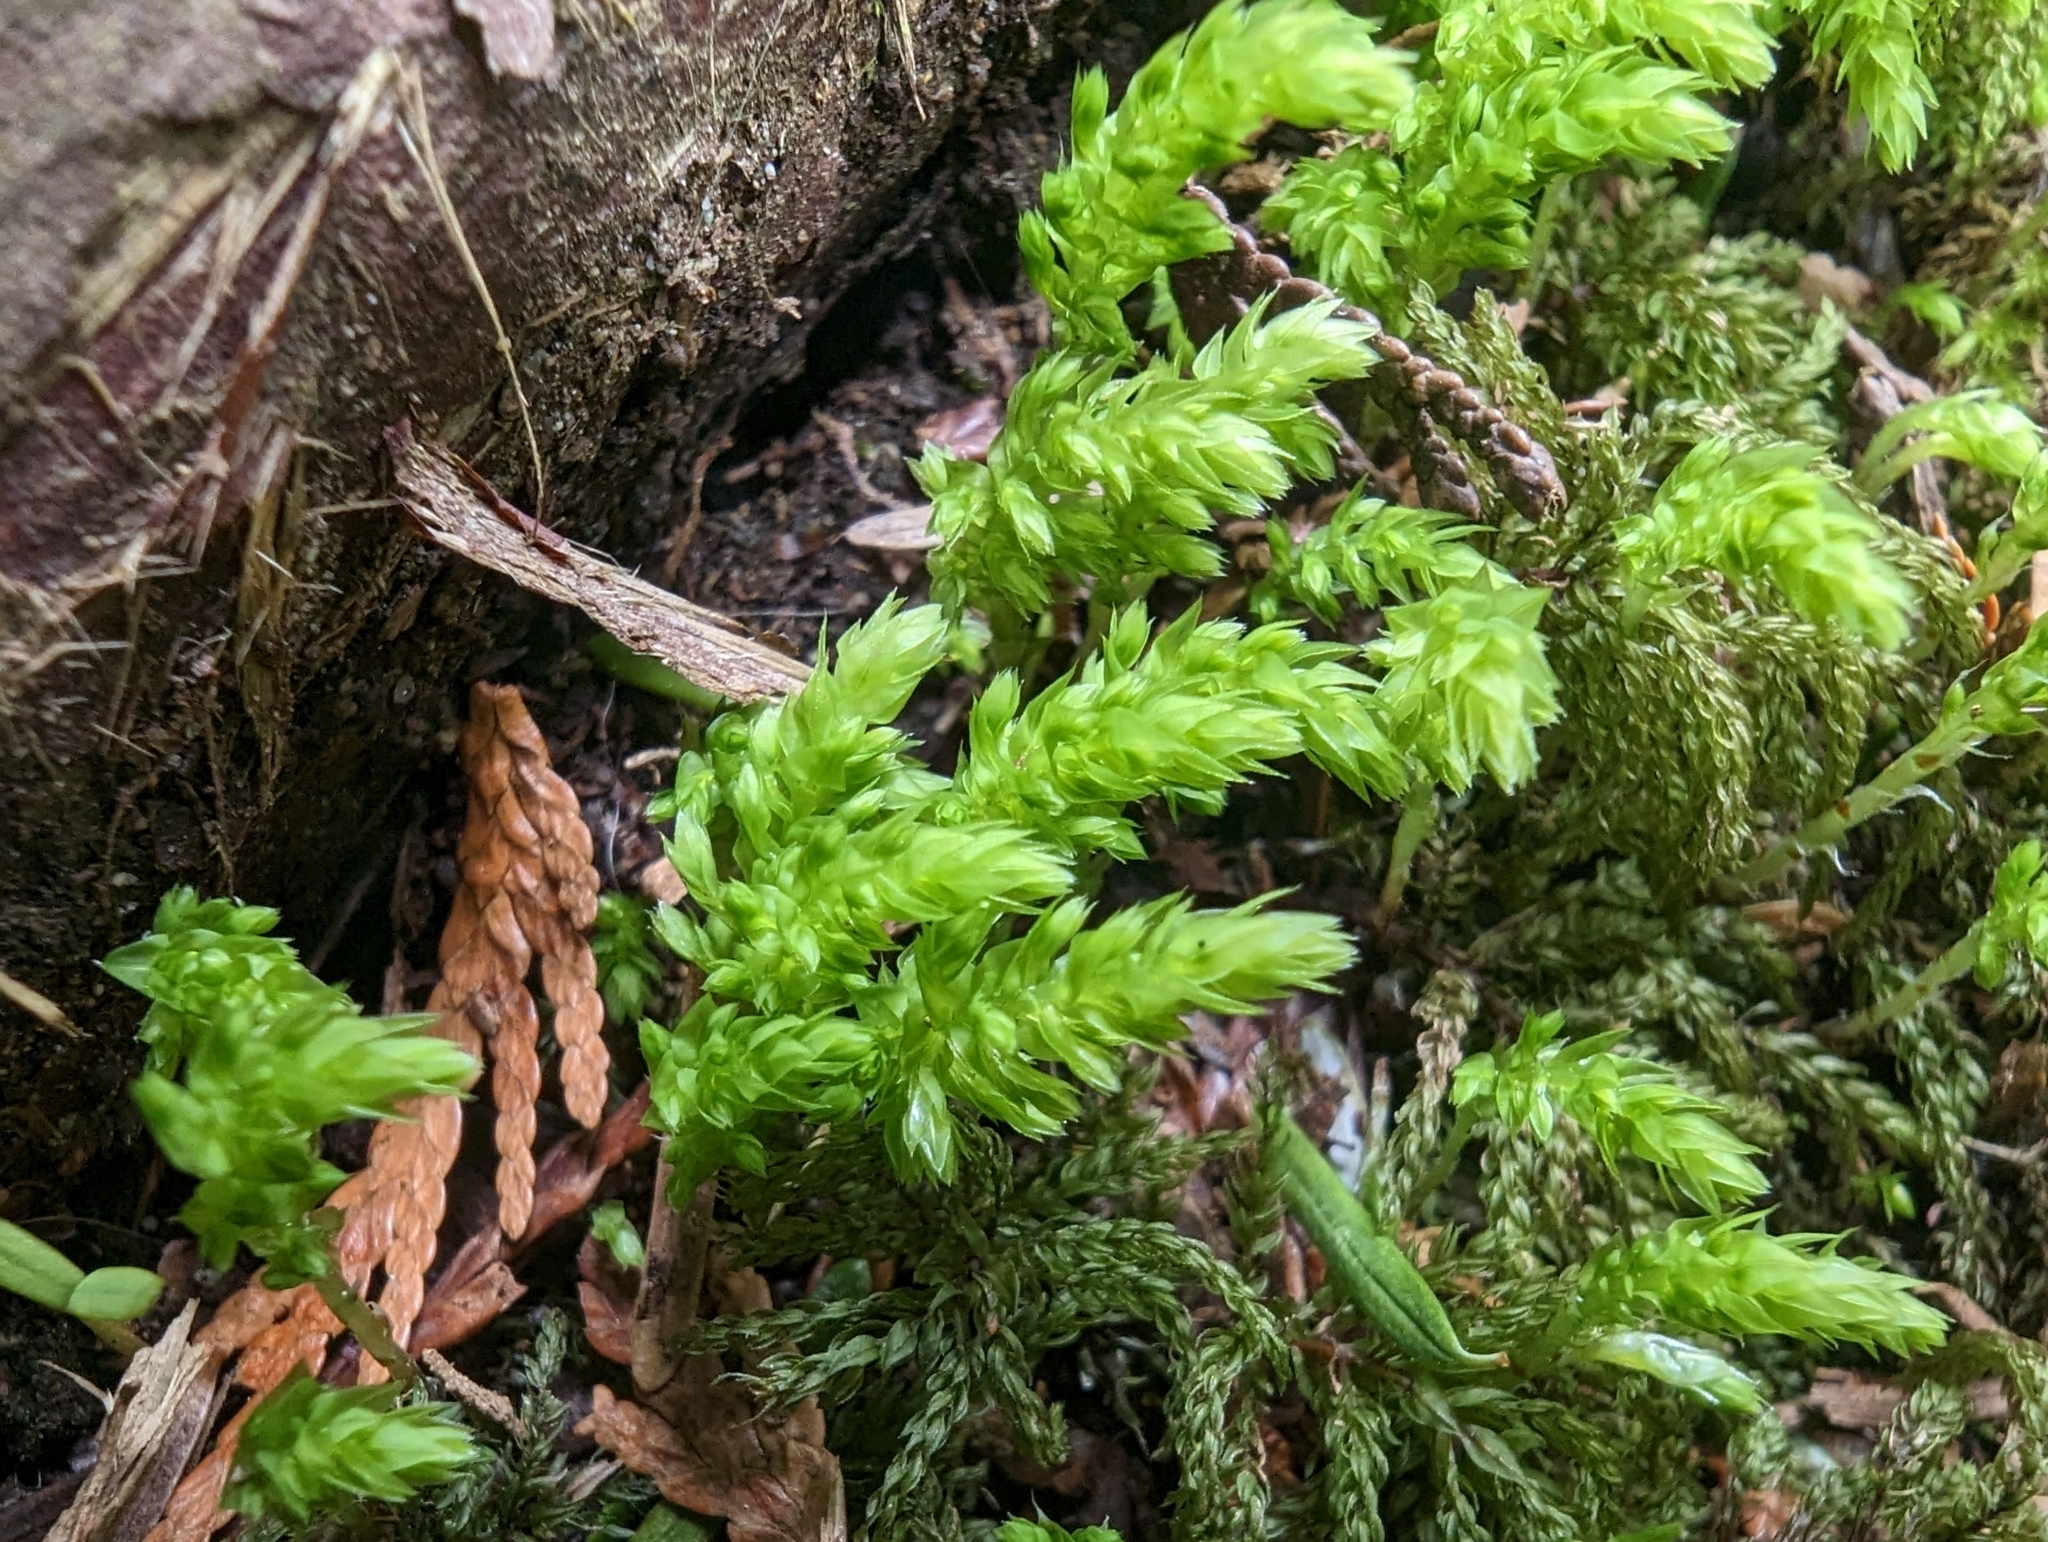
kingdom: Plantae
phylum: Bryophyta
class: Bryopsida
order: Bryales
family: Mniaceae
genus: Leucolepis
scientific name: Leucolepis acanthoneura
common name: Leucolepis umbrella moss
